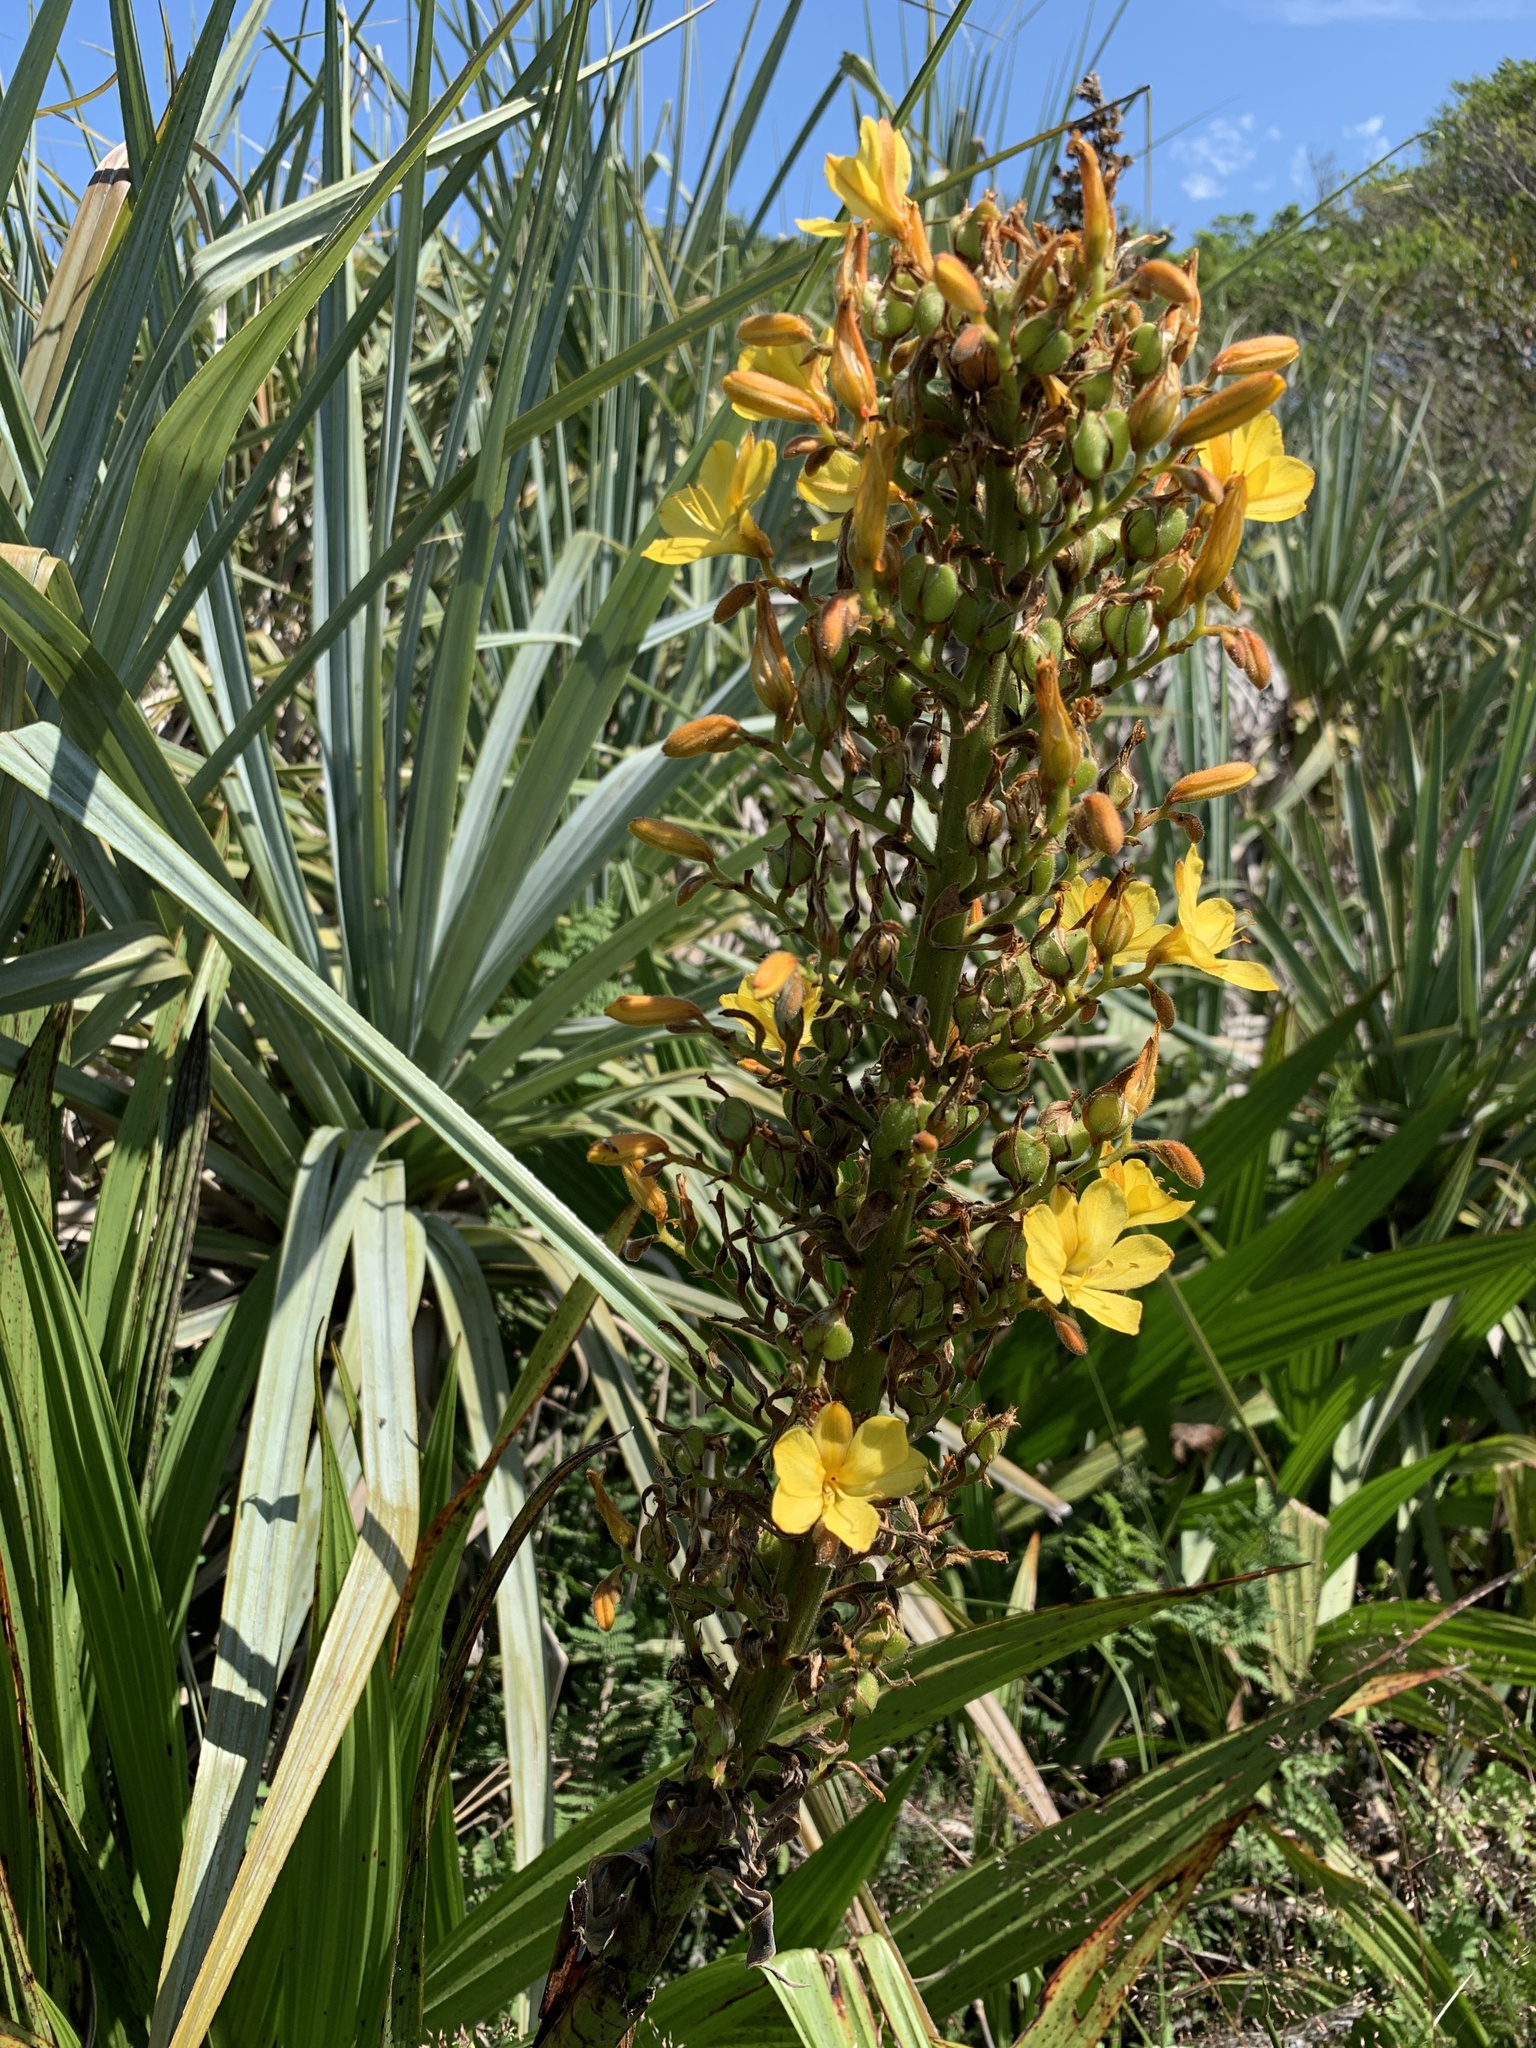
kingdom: Plantae
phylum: Tracheophyta
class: Liliopsida
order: Commelinales
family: Haemodoraceae
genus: Wachendorfia
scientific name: Wachendorfia thyrsiflora
